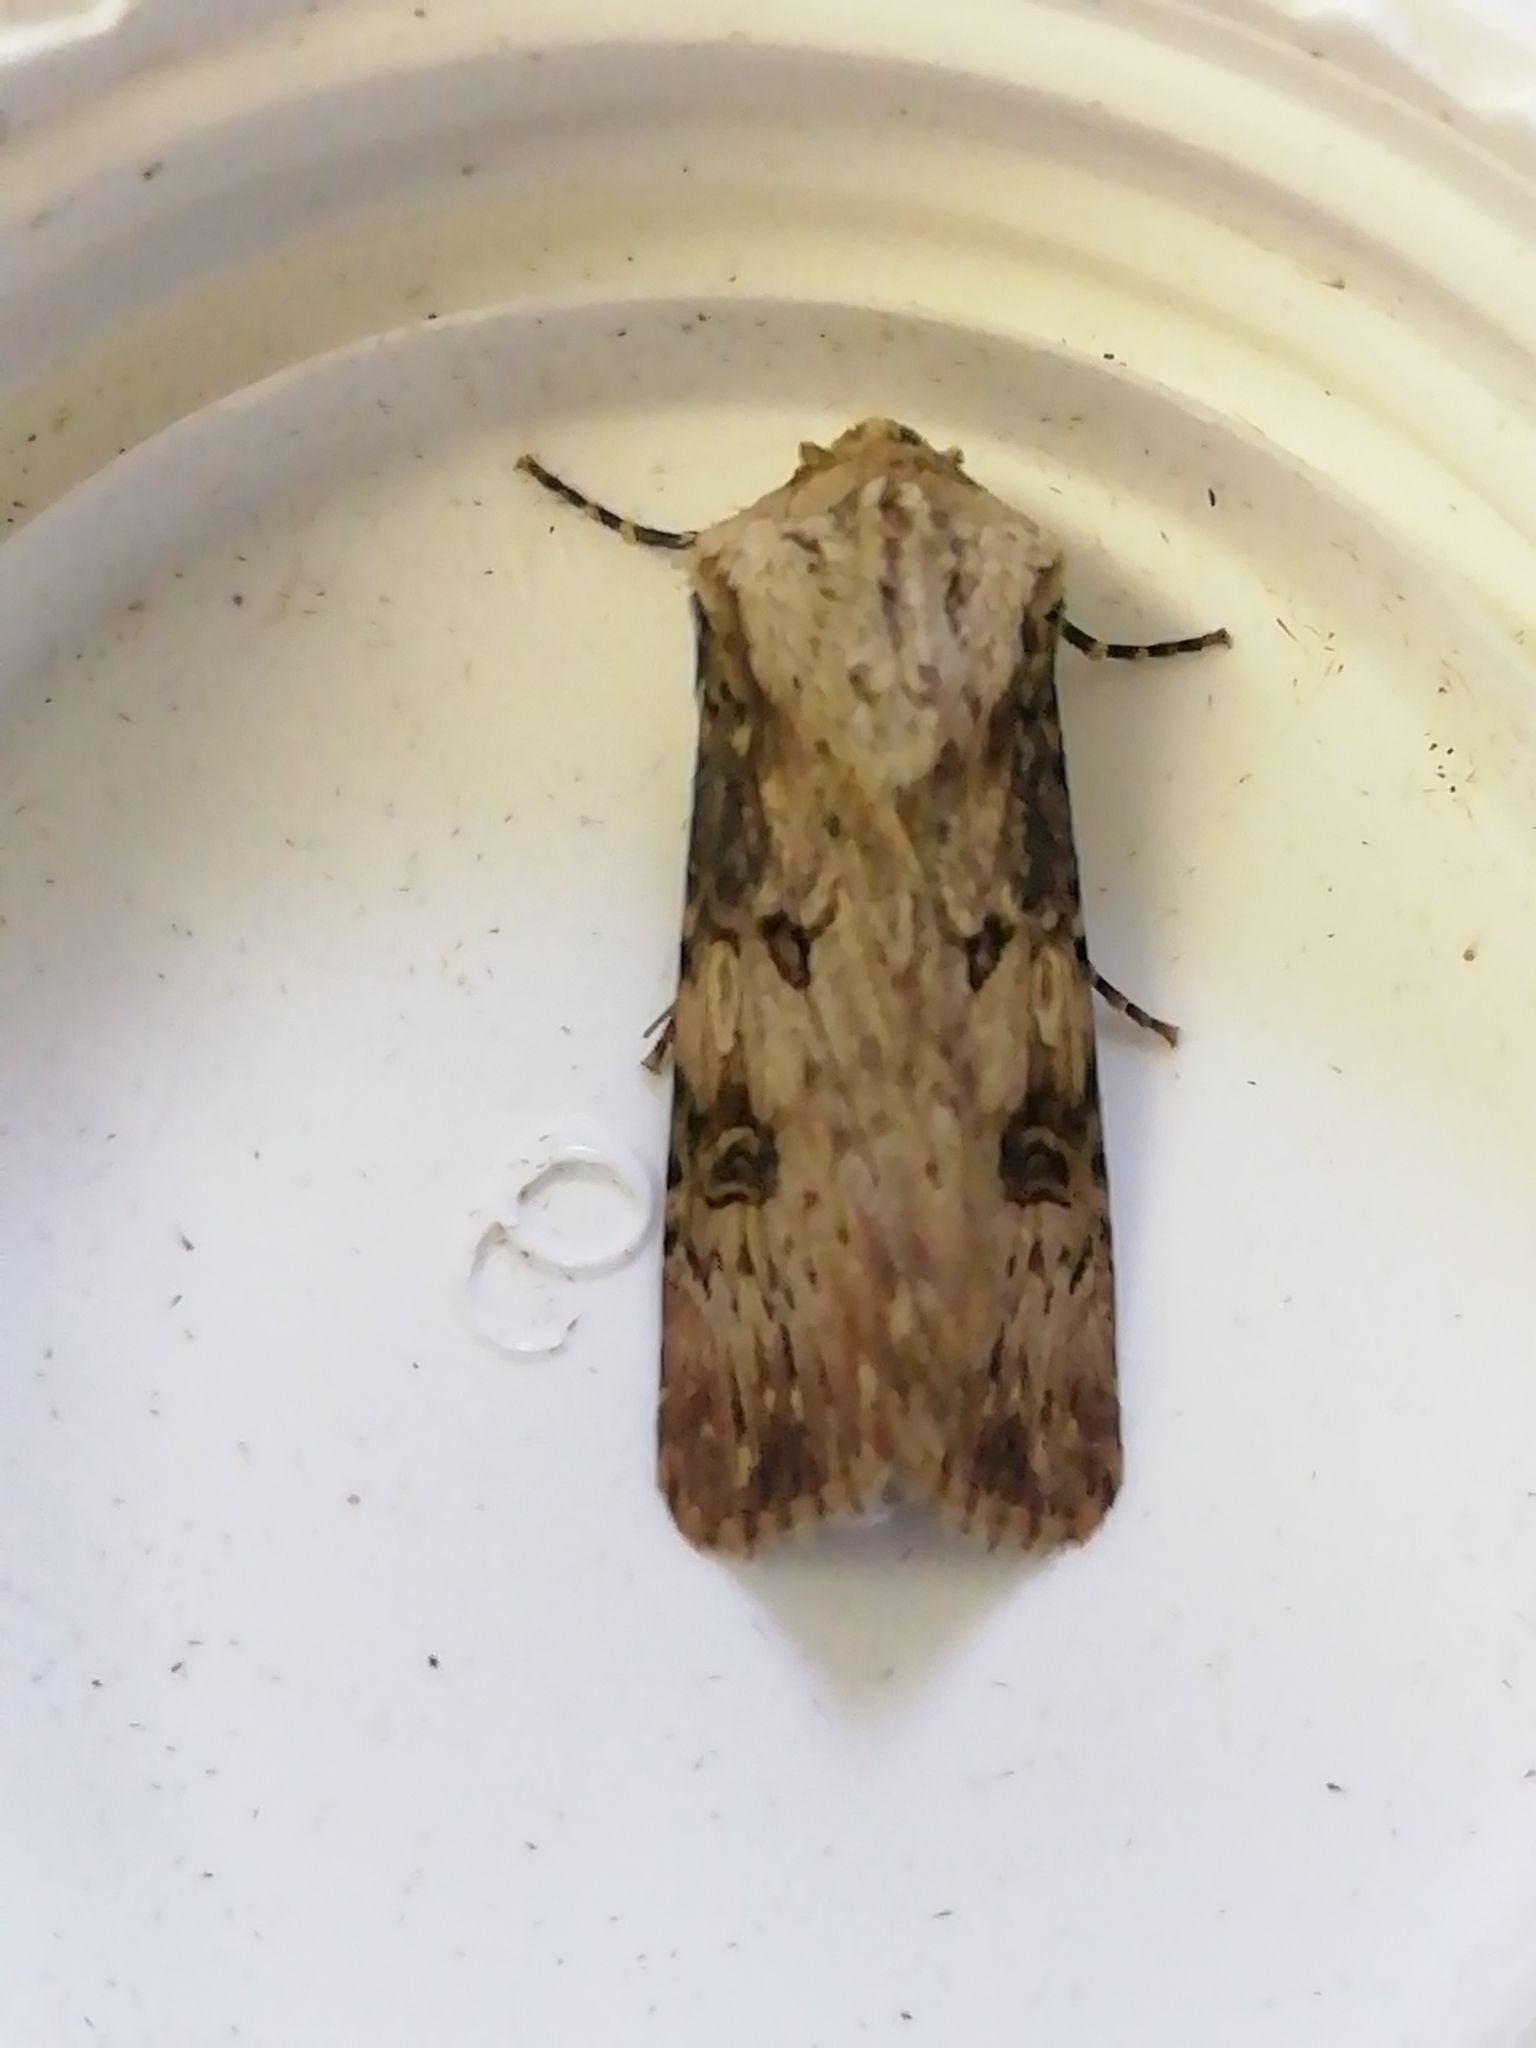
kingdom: Animalia
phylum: Arthropoda
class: Insecta
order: Lepidoptera
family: Noctuidae
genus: Agrotis
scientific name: Agrotis puta
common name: Shuttle-shaped dart
